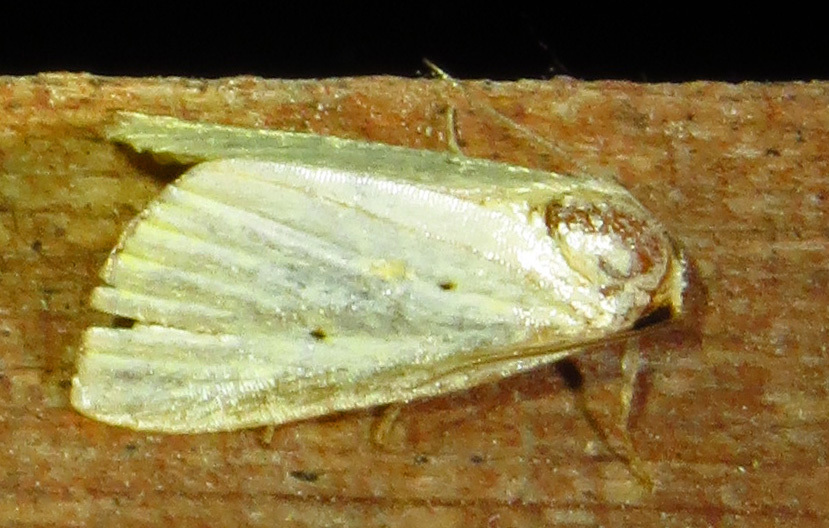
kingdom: Animalia
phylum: Arthropoda
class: Insecta
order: Lepidoptera
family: Noctuidae
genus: Marimatha
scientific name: Marimatha nigrofimbria
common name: Black-bordered lemon moth
